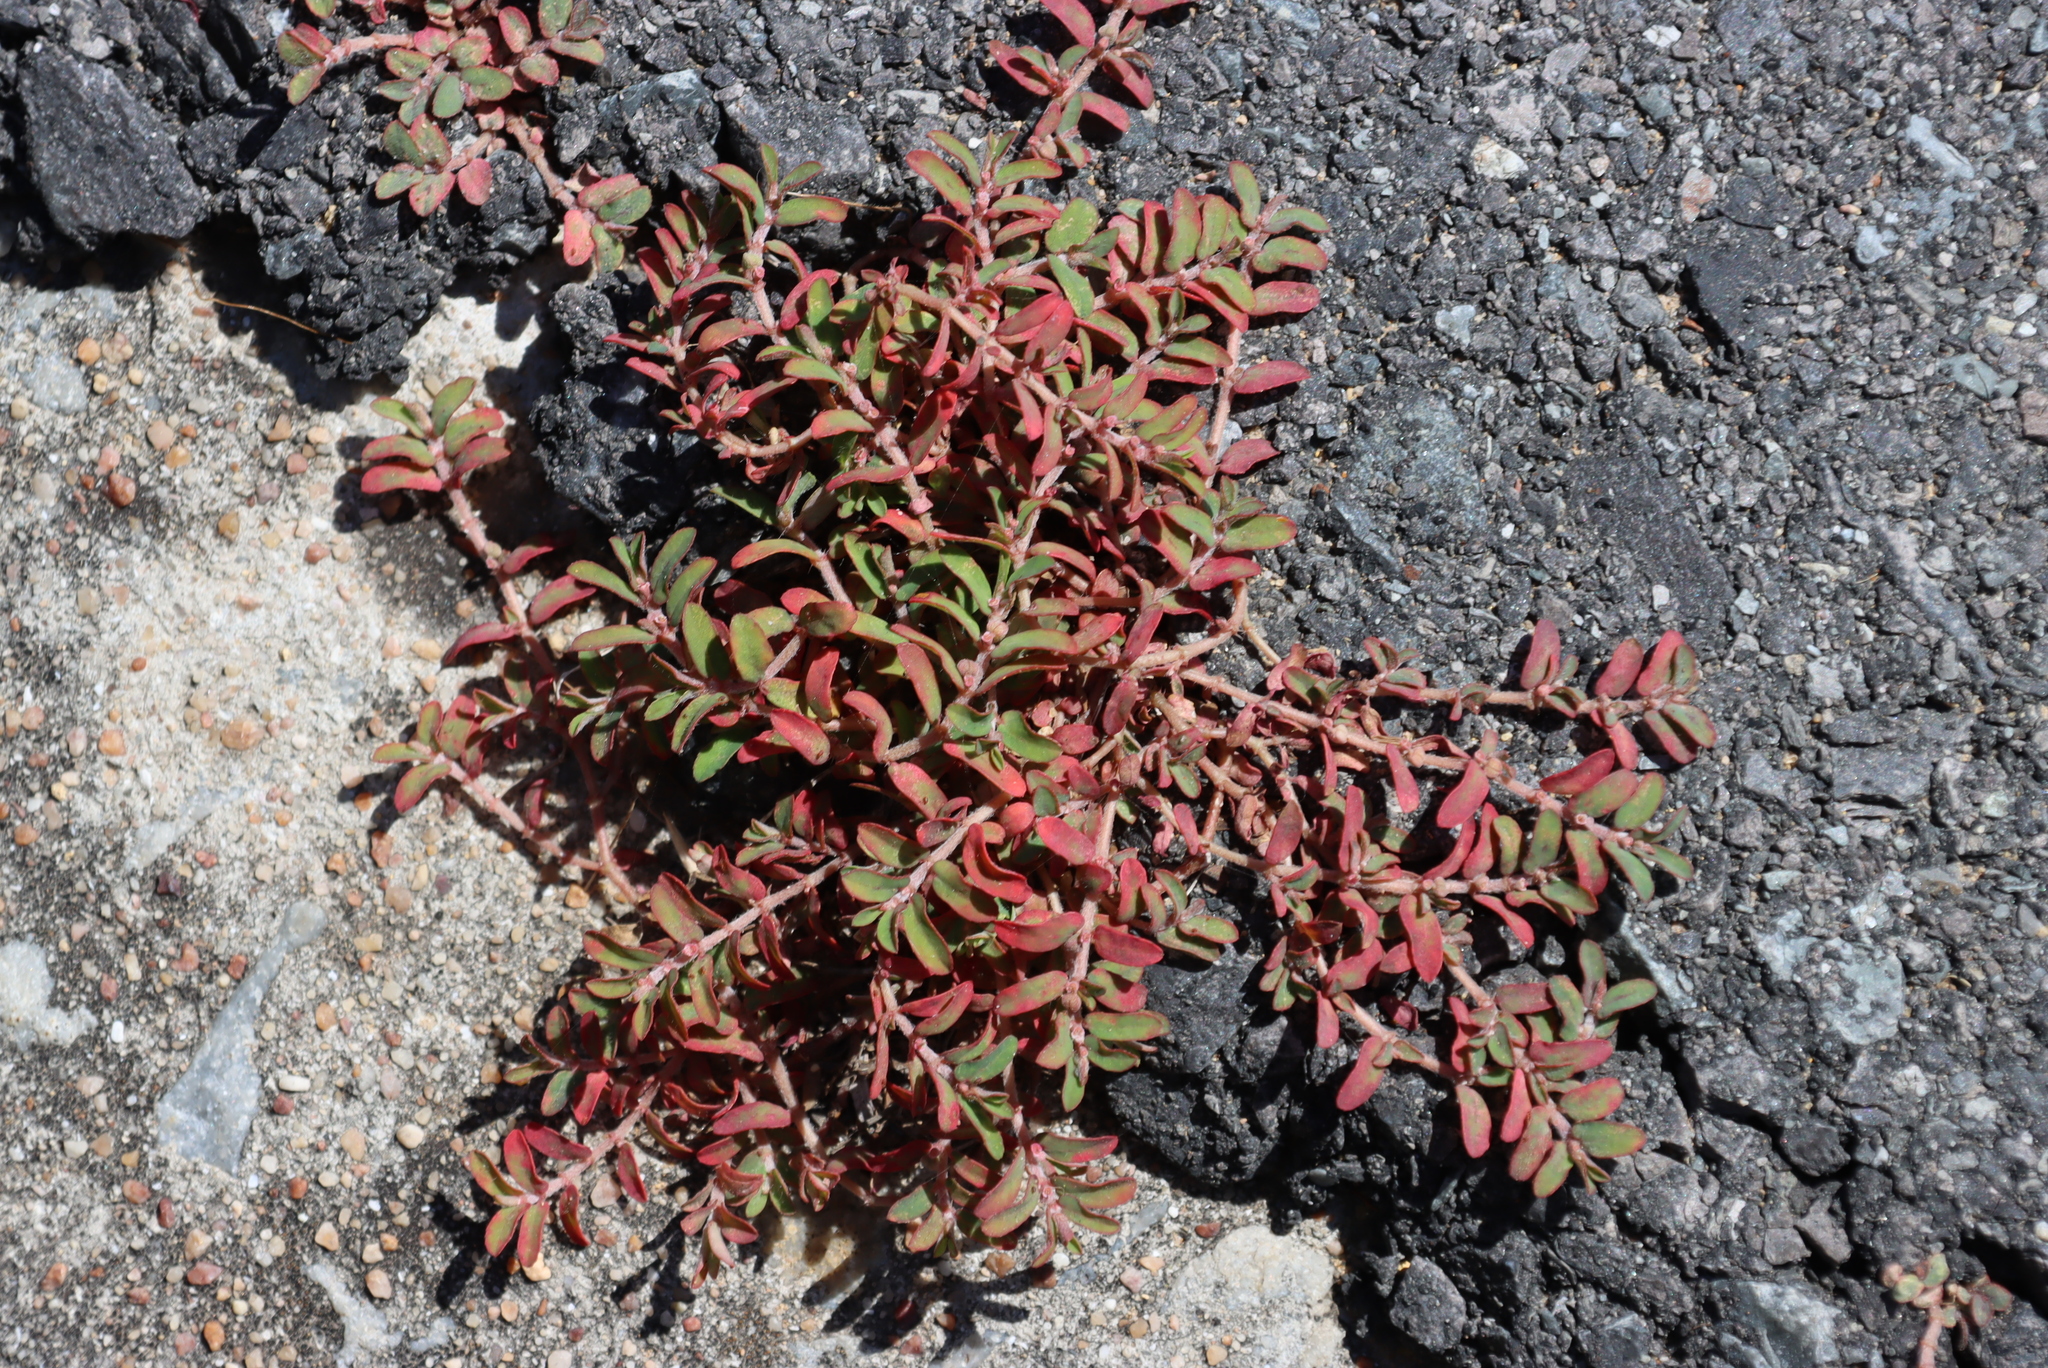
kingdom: Plantae
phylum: Tracheophyta
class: Magnoliopsida
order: Malpighiales
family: Euphorbiaceae
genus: Euphorbia
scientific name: Euphorbia maculata
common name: Spotted spurge
